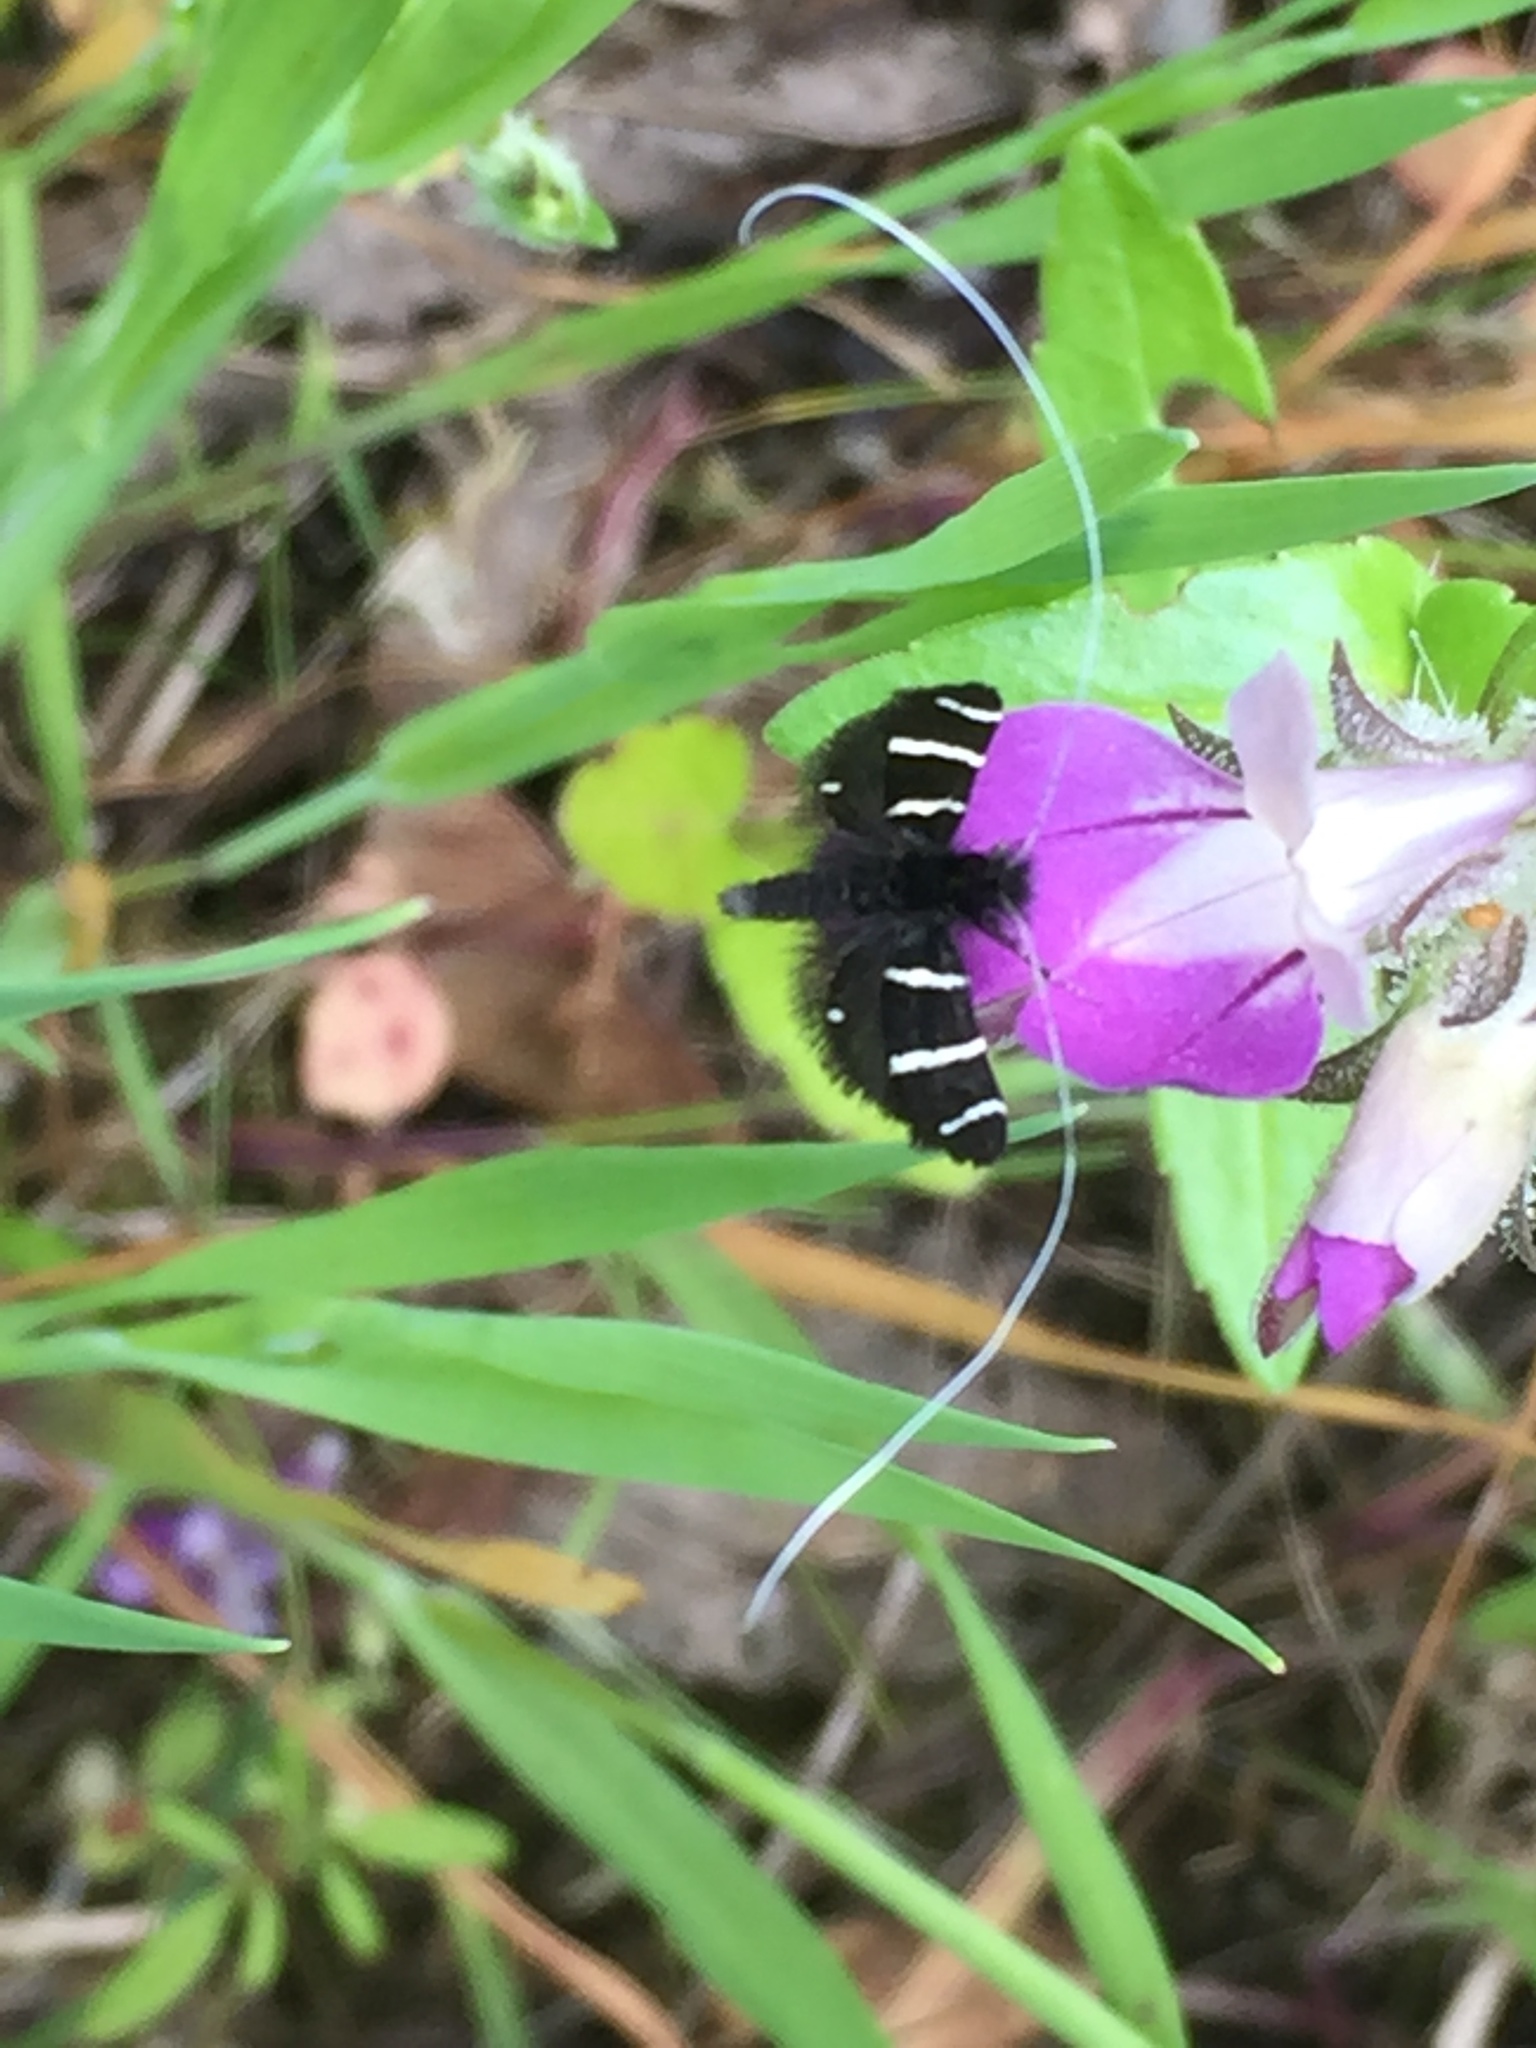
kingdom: Animalia
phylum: Arthropoda
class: Insecta
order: Lepidoptera
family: Adelidae
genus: Adela
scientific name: Adela trigrapha
